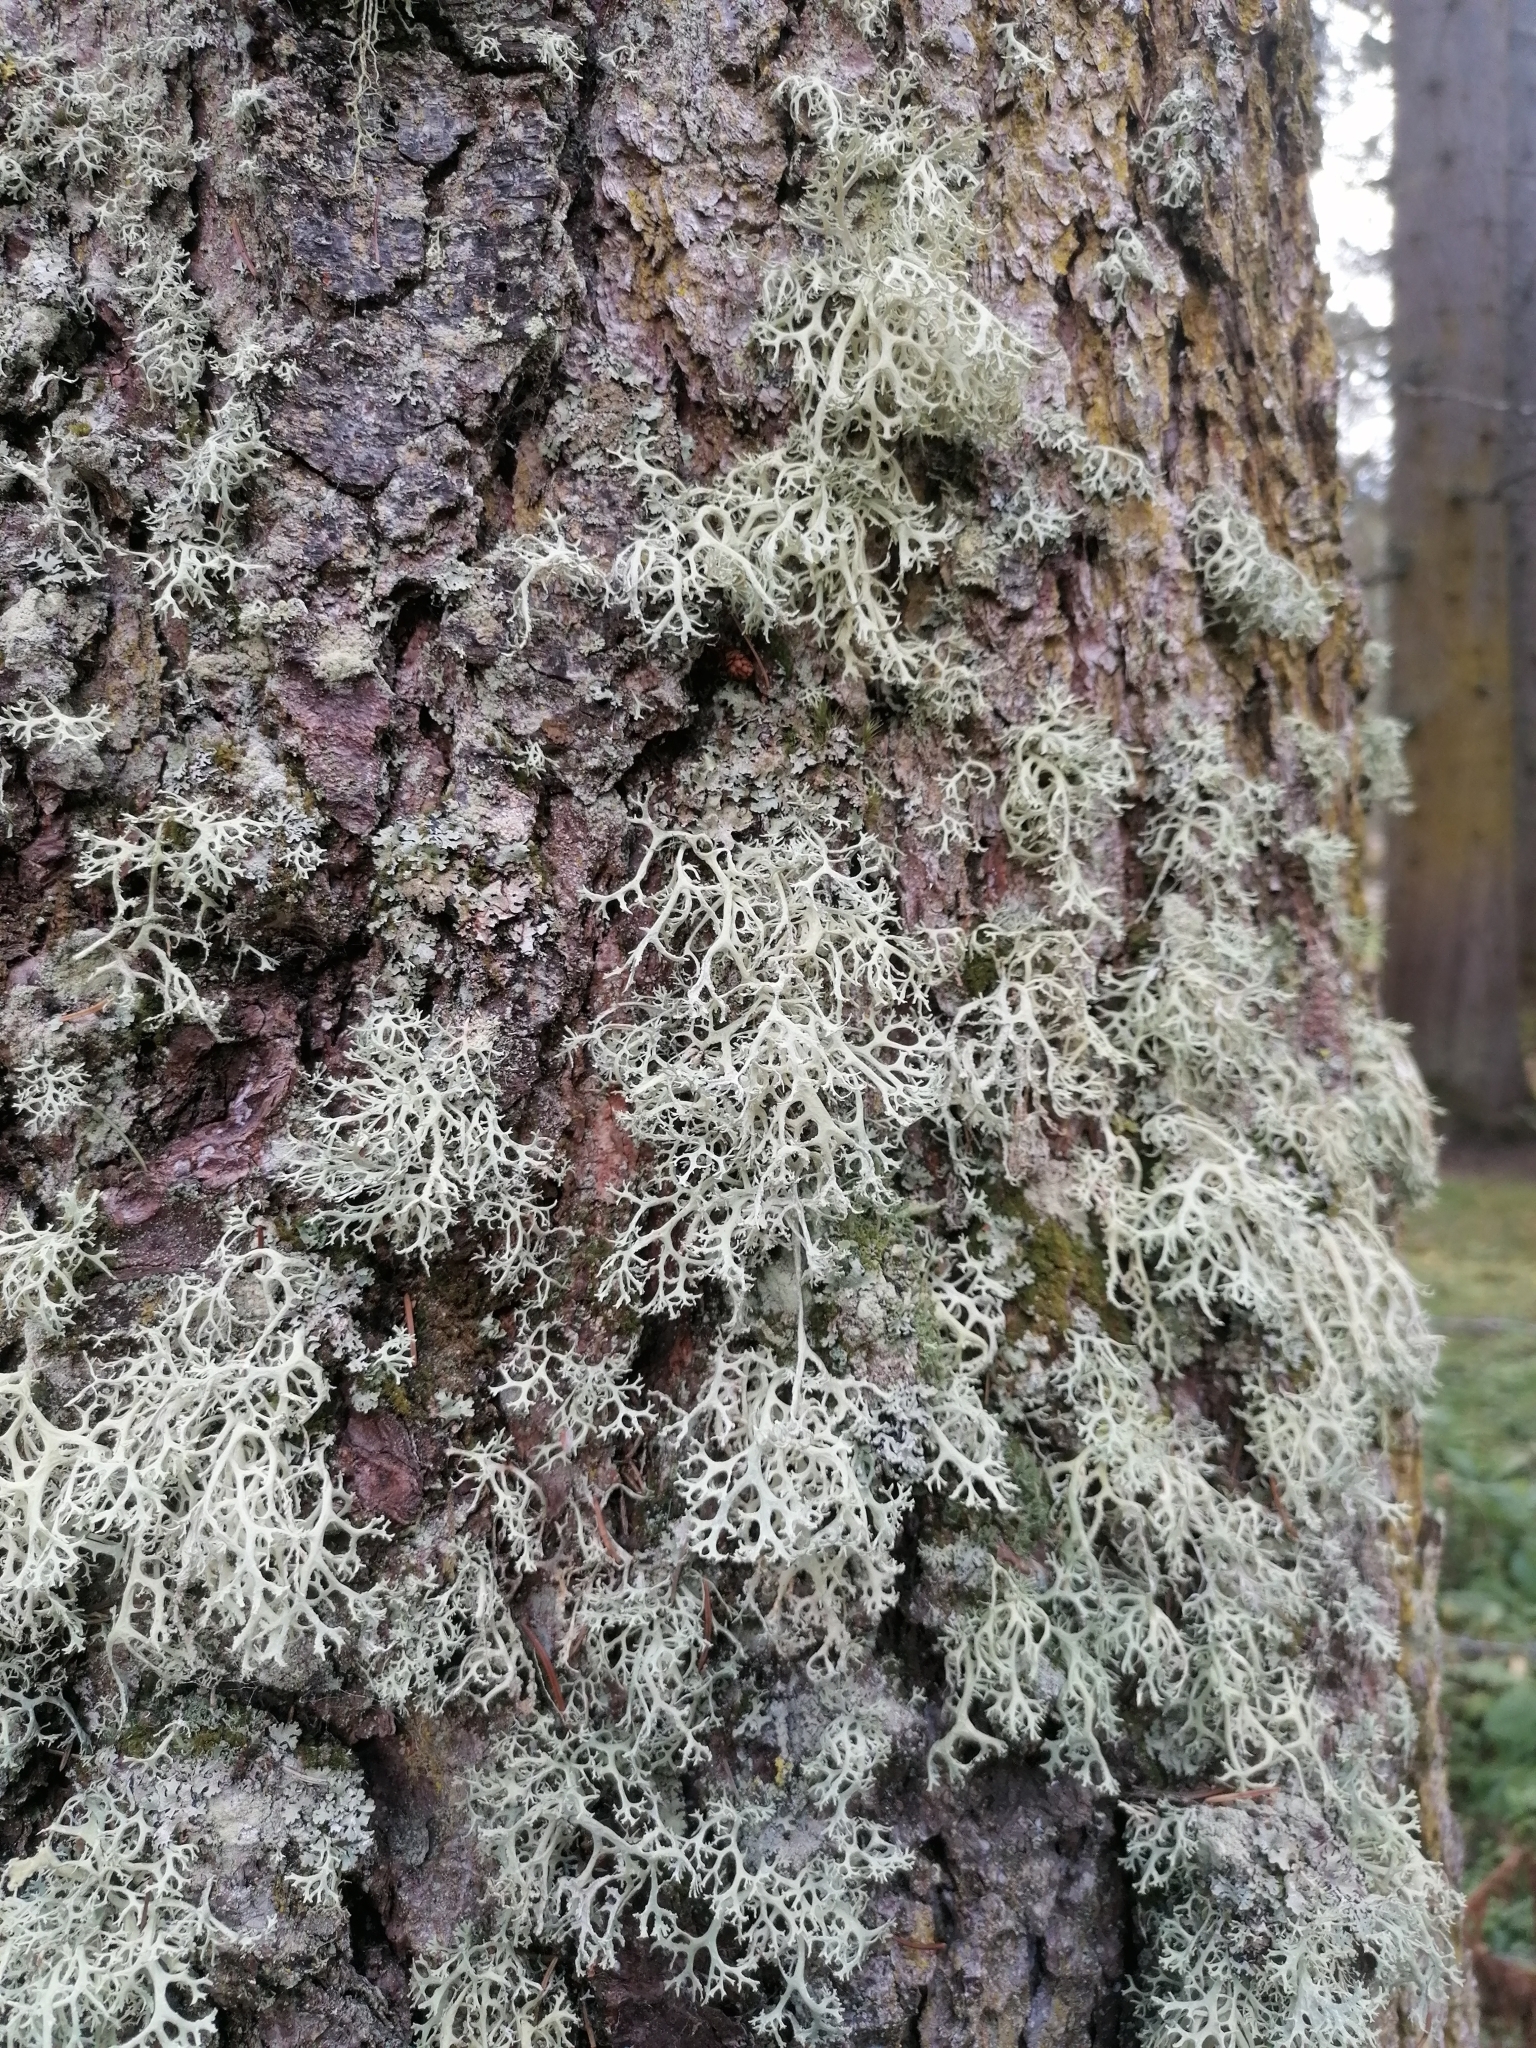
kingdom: Fungi
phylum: Ascomycota
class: Lecanoromycetes
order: Lecanorales
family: Parmeliaceae
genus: Evernia
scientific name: Evernia prunastri
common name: Oak moss
